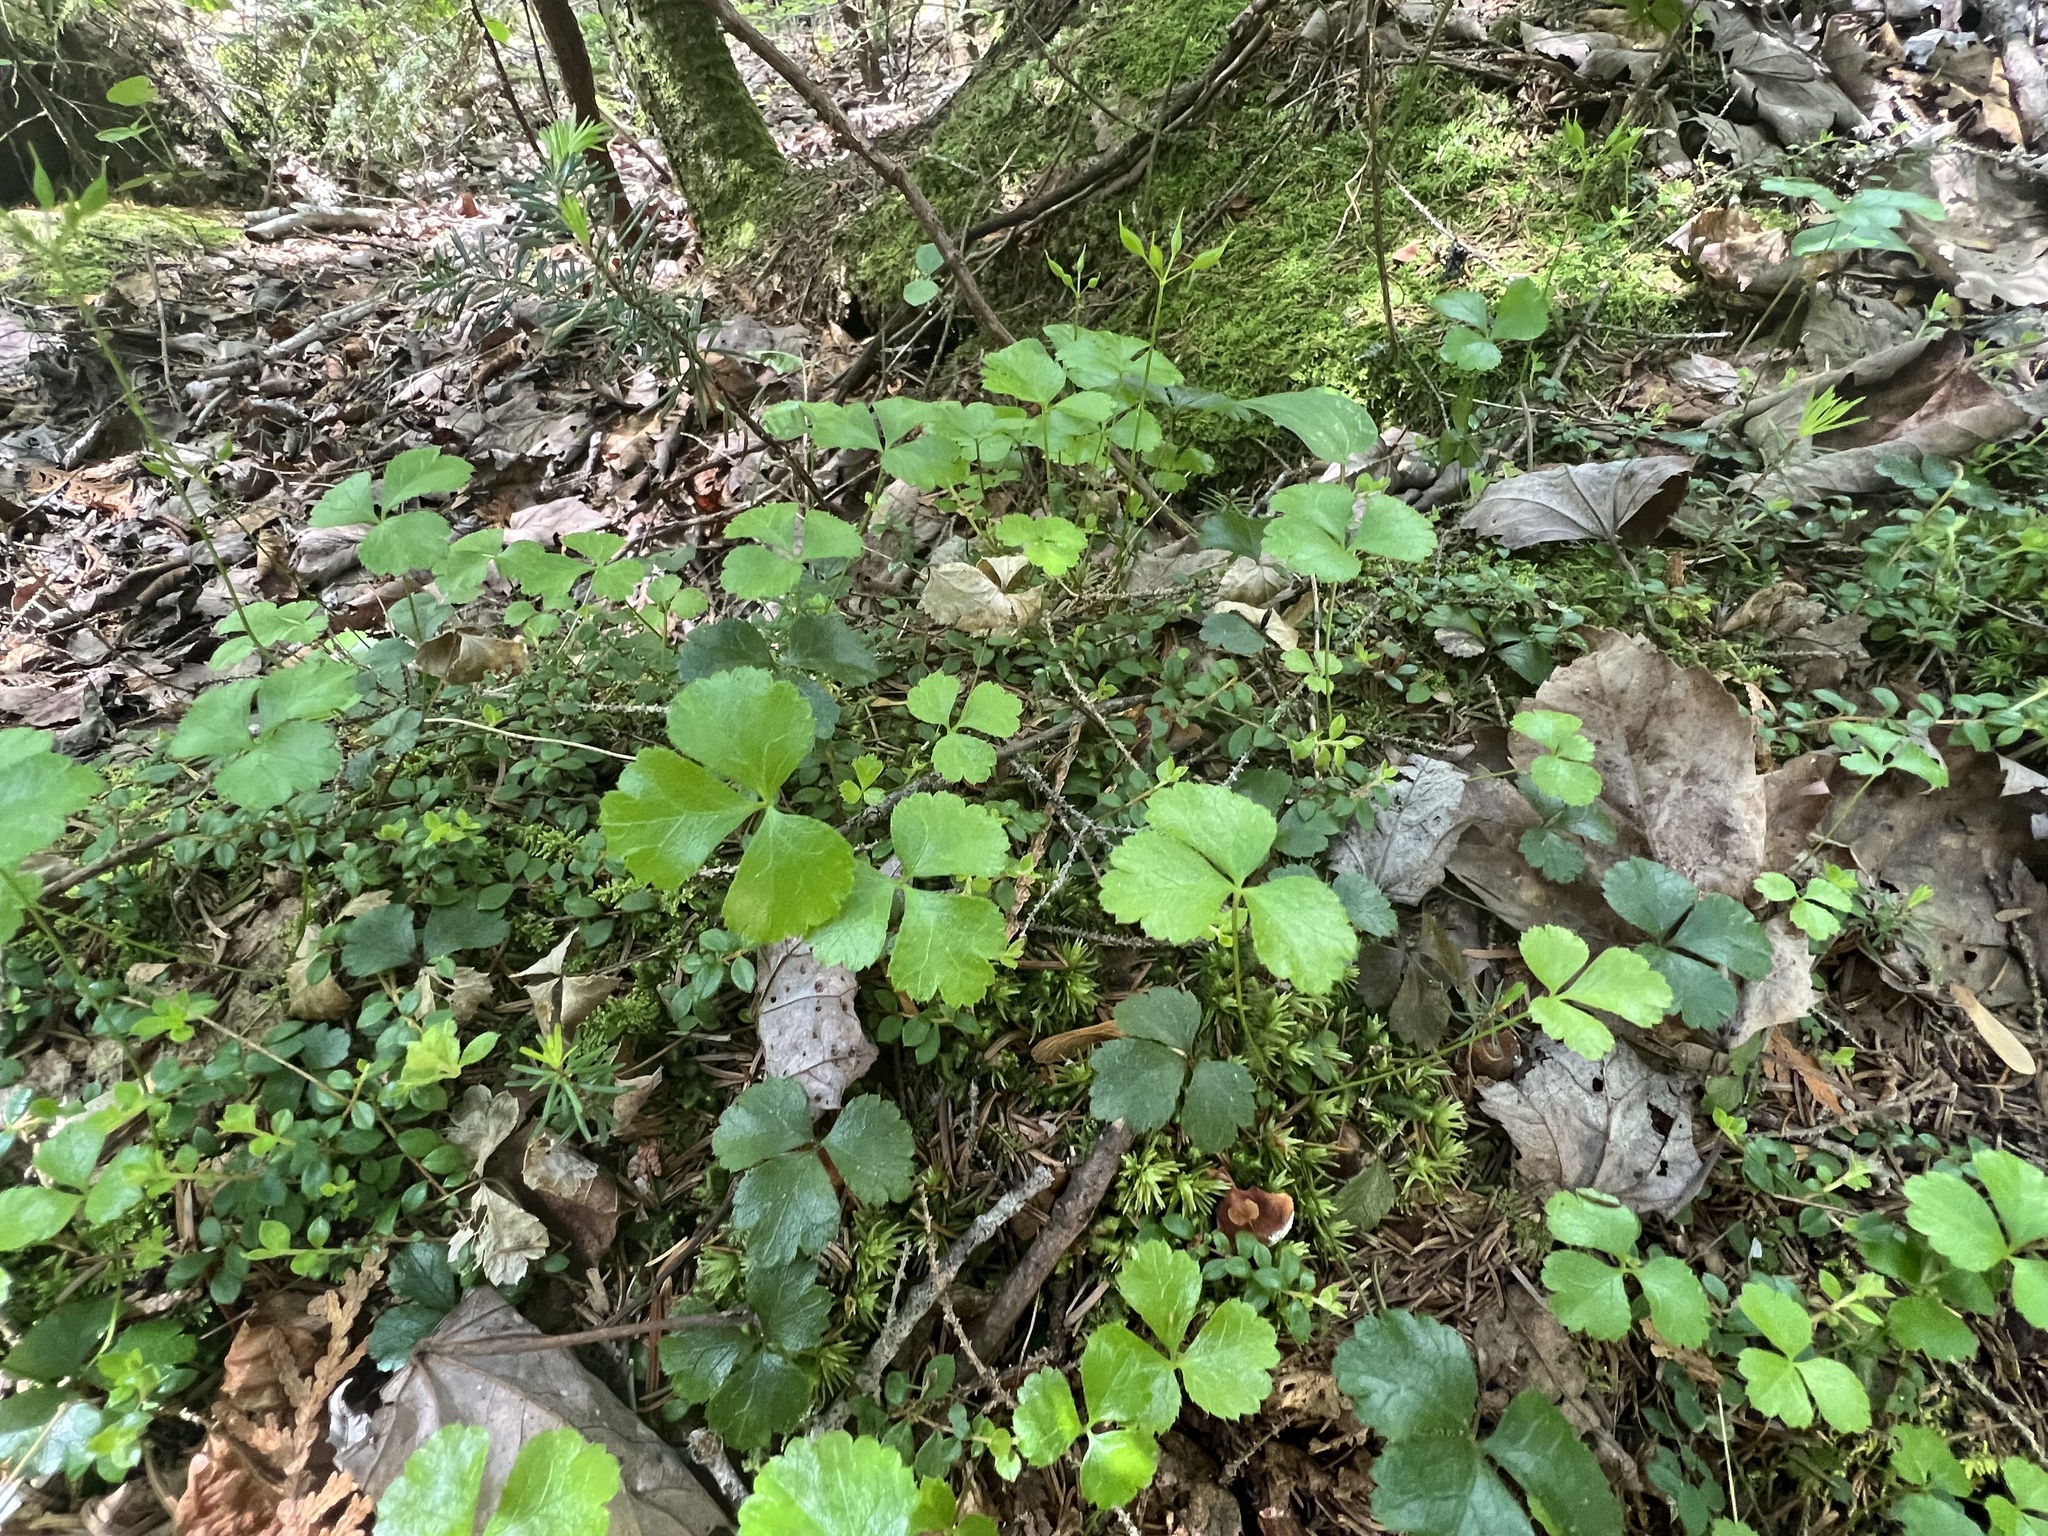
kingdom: Plantae
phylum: Tracheophyta
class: Magnoliopsida
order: Ranunculales
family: Ranunculaceae
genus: Coptis
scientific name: Coptis trifolia
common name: Canker-root
